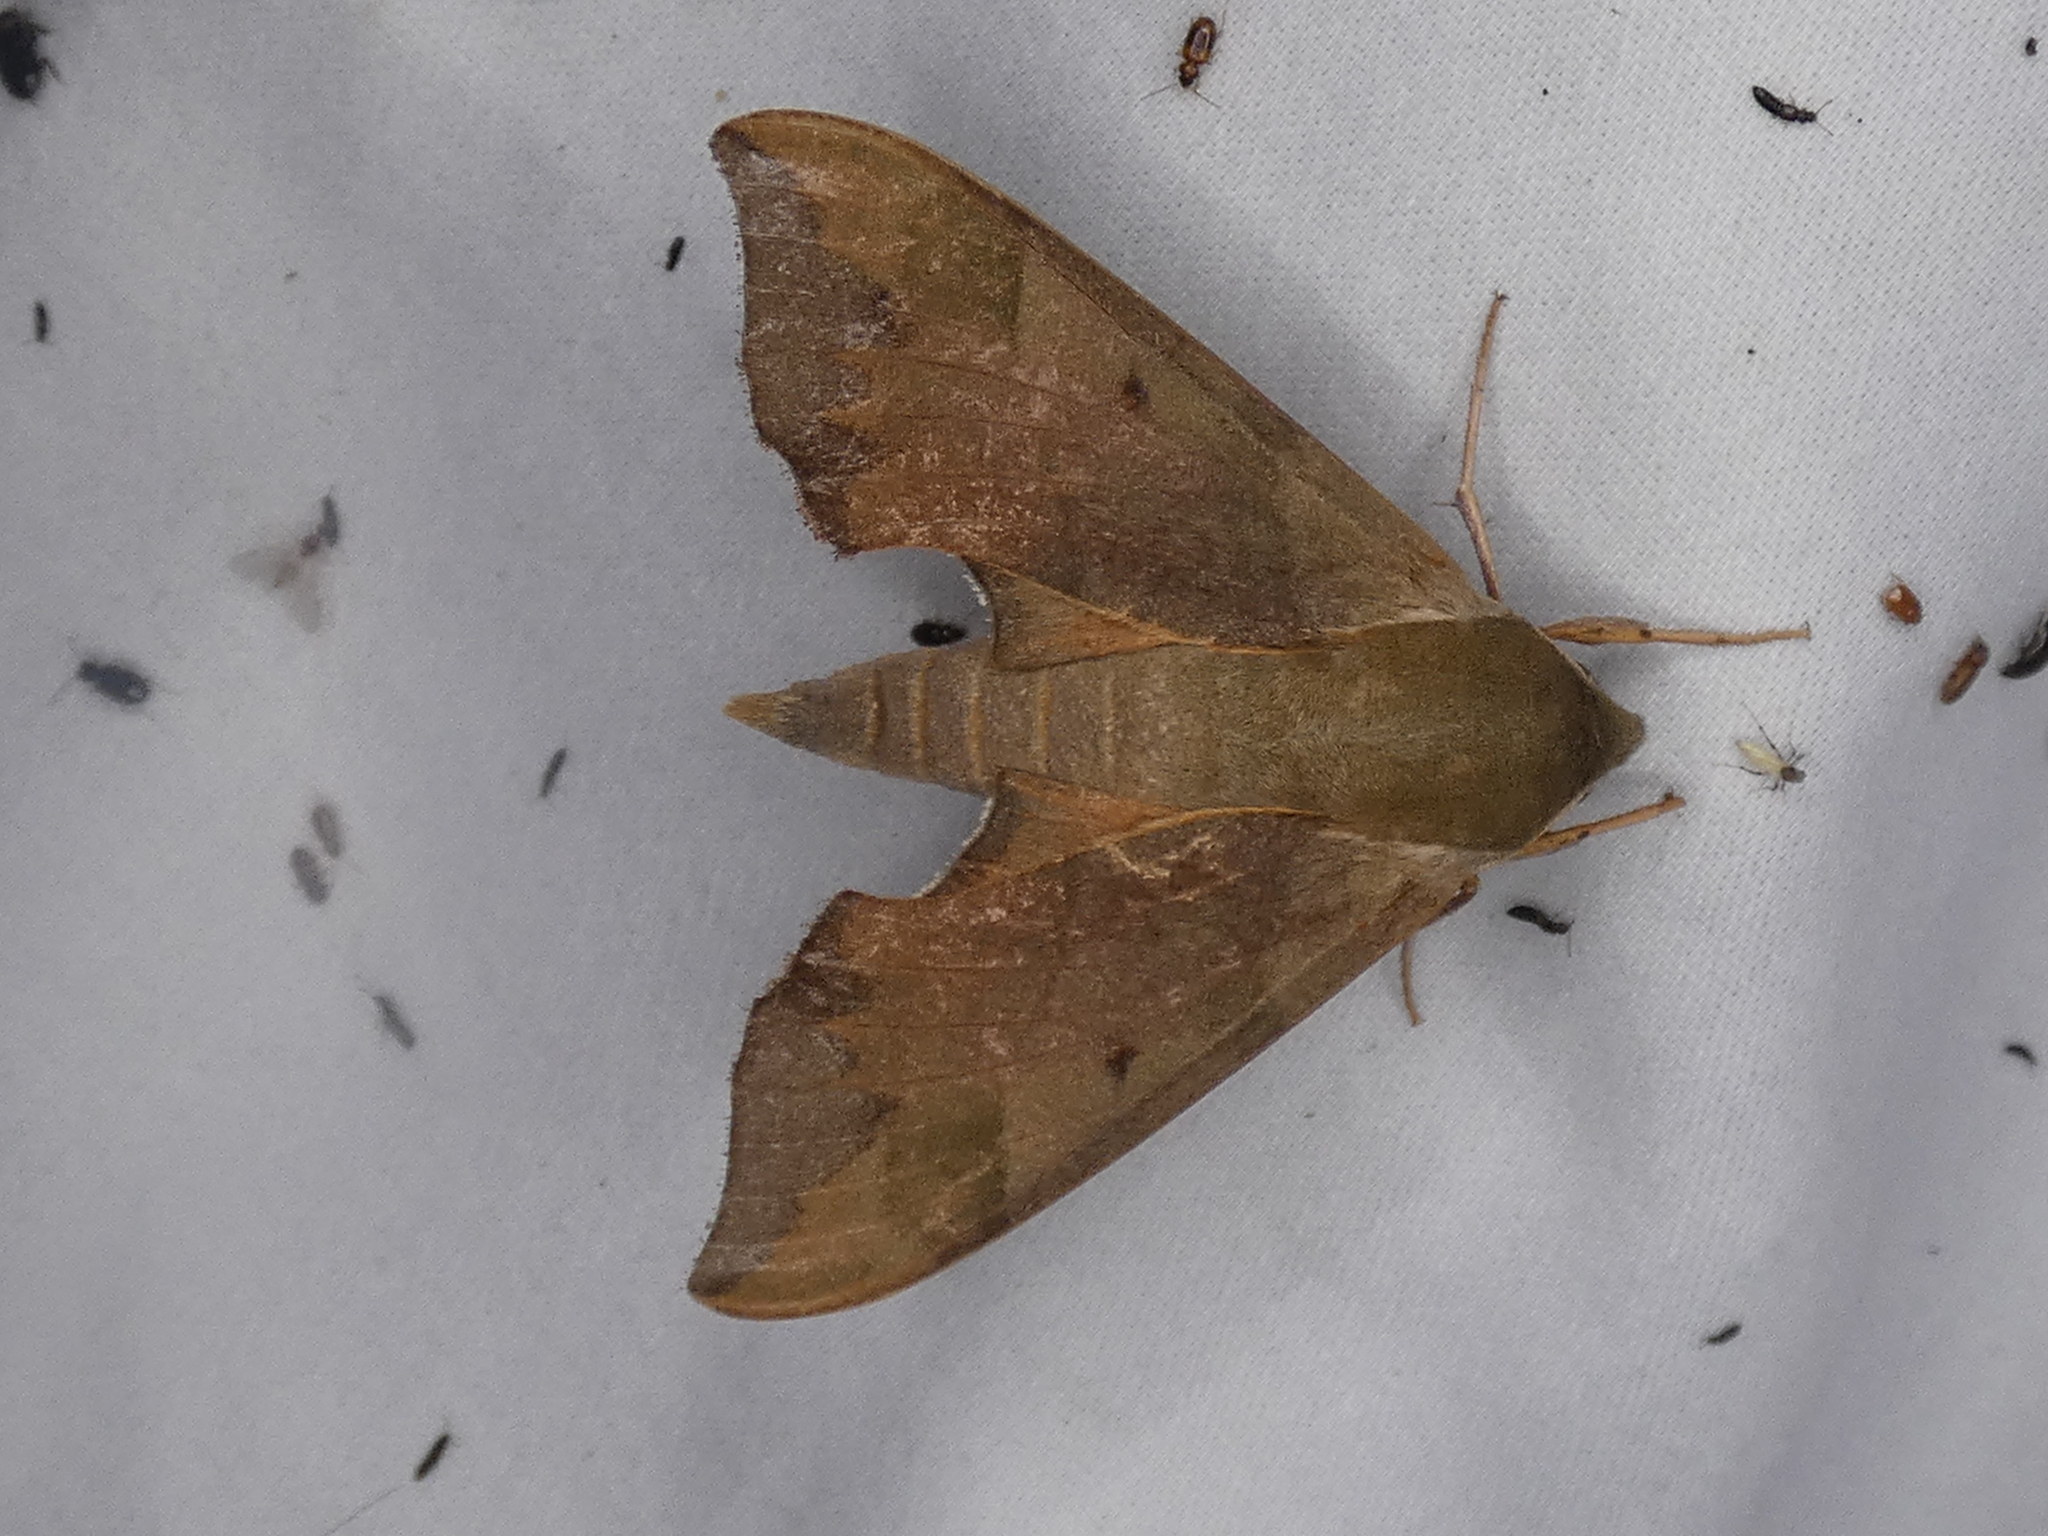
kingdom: Animalia
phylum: Arthropoda
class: Insecta
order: Lepidoptera
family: Sphingidae
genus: Darapsa
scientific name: Darapsa myron
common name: Hog sphinx
